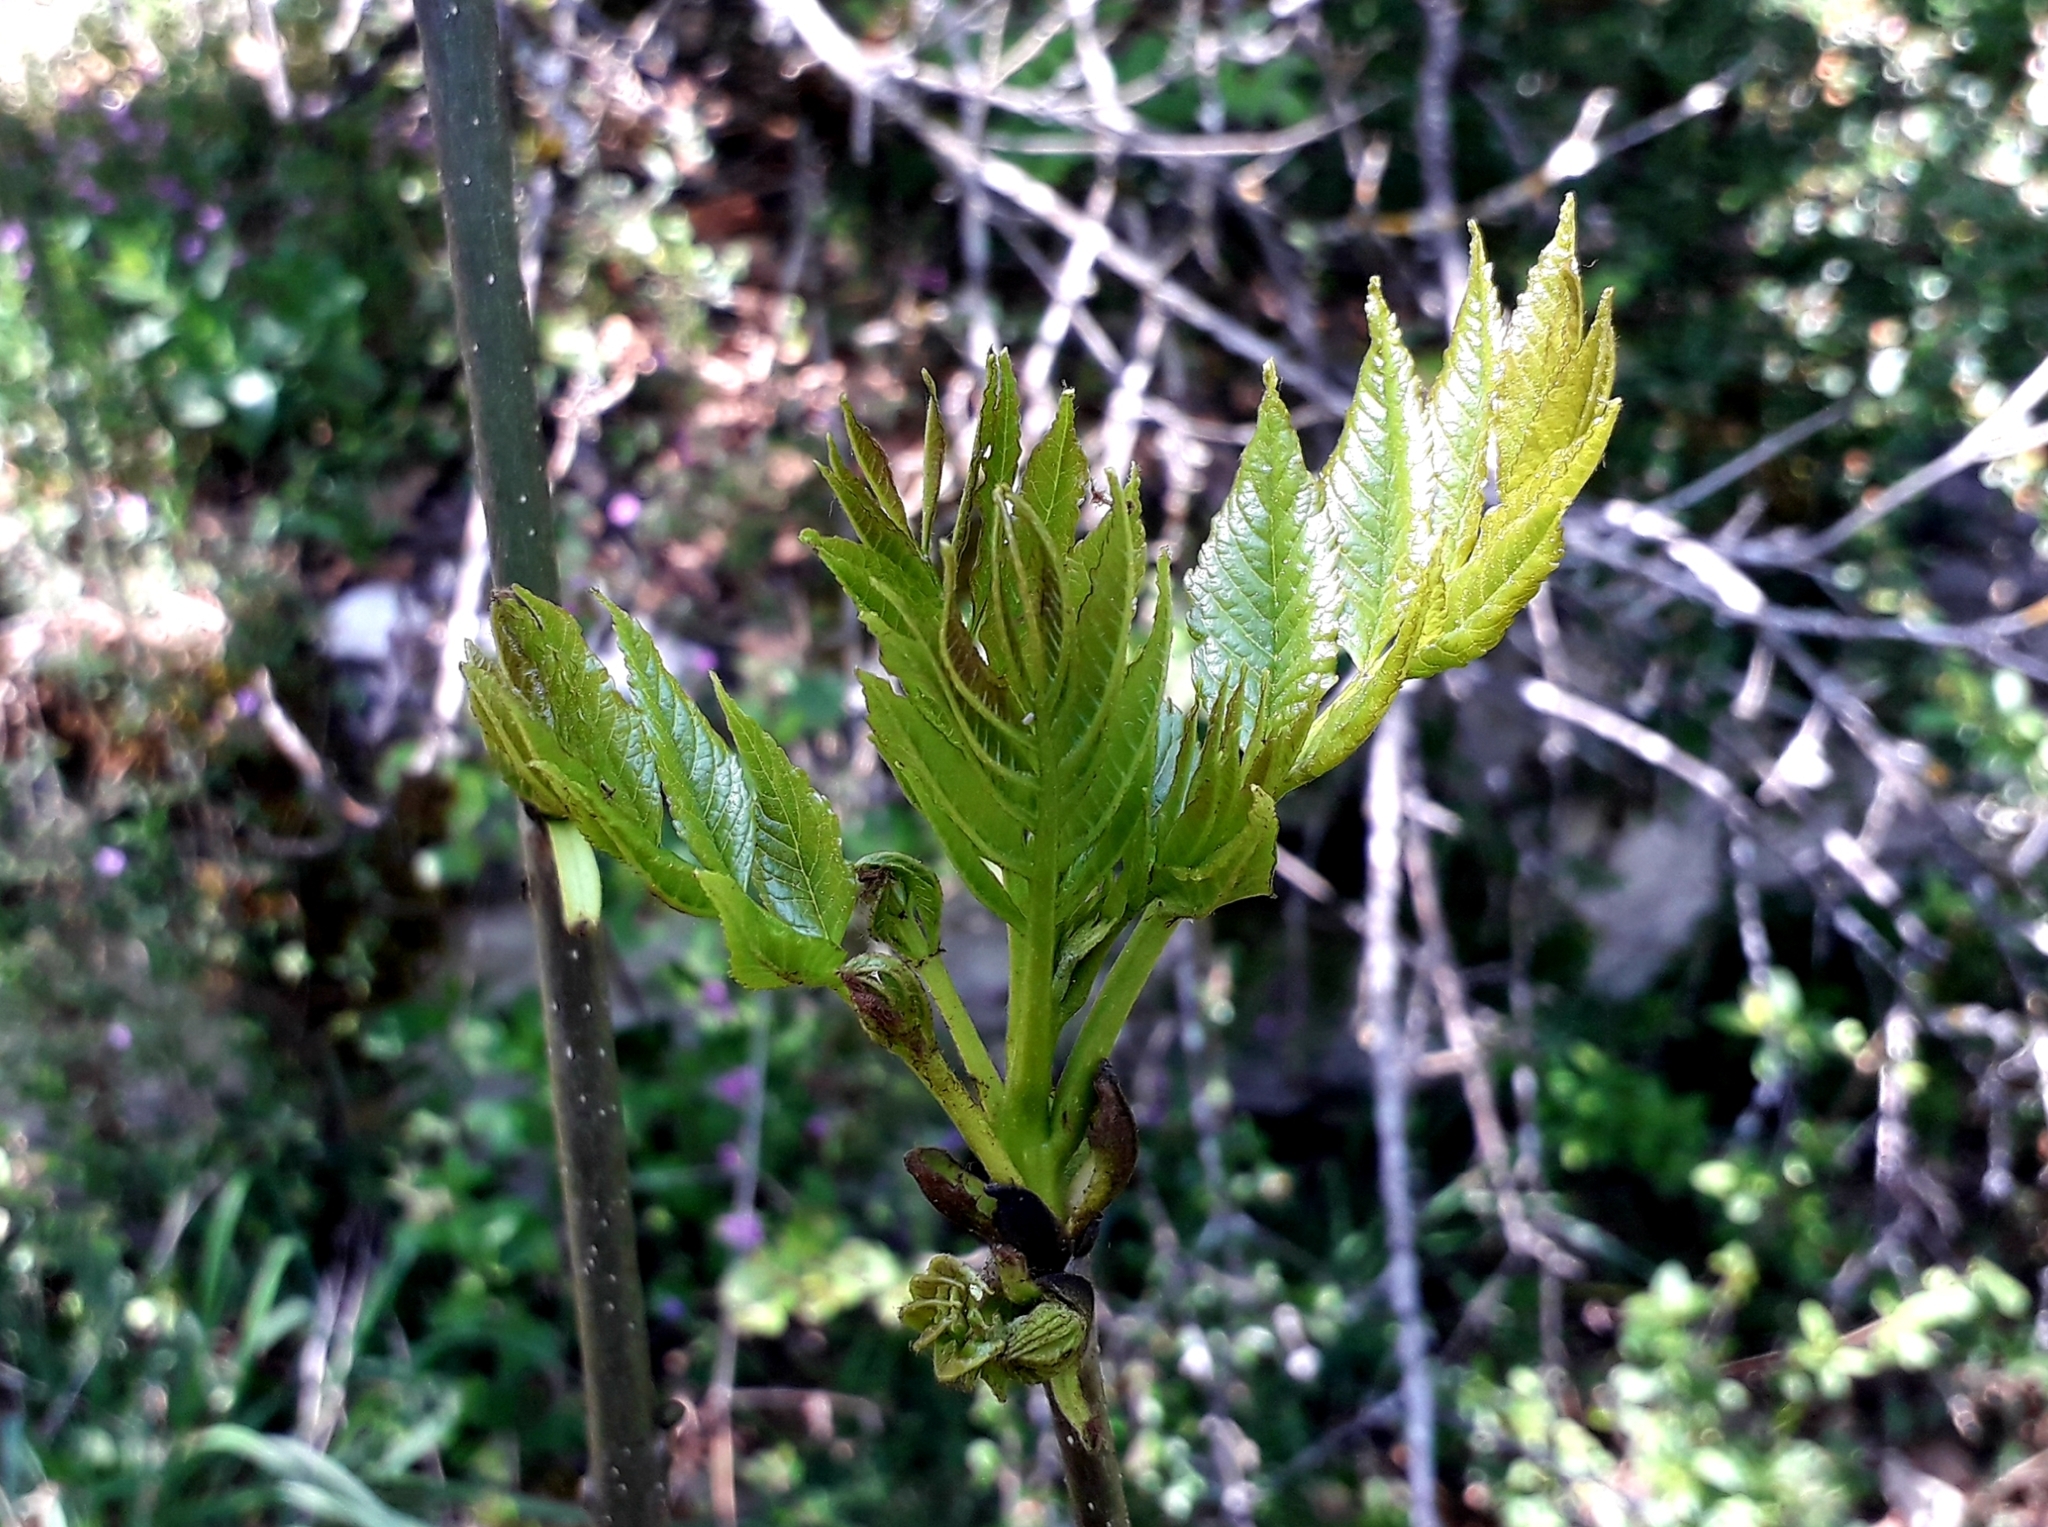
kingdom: Plantae
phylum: Tracheophyta
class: Magnoliopsida
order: Lamiales
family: Oleaceae
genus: Fraxinus
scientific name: Fraxinus excelsior
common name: European ash
